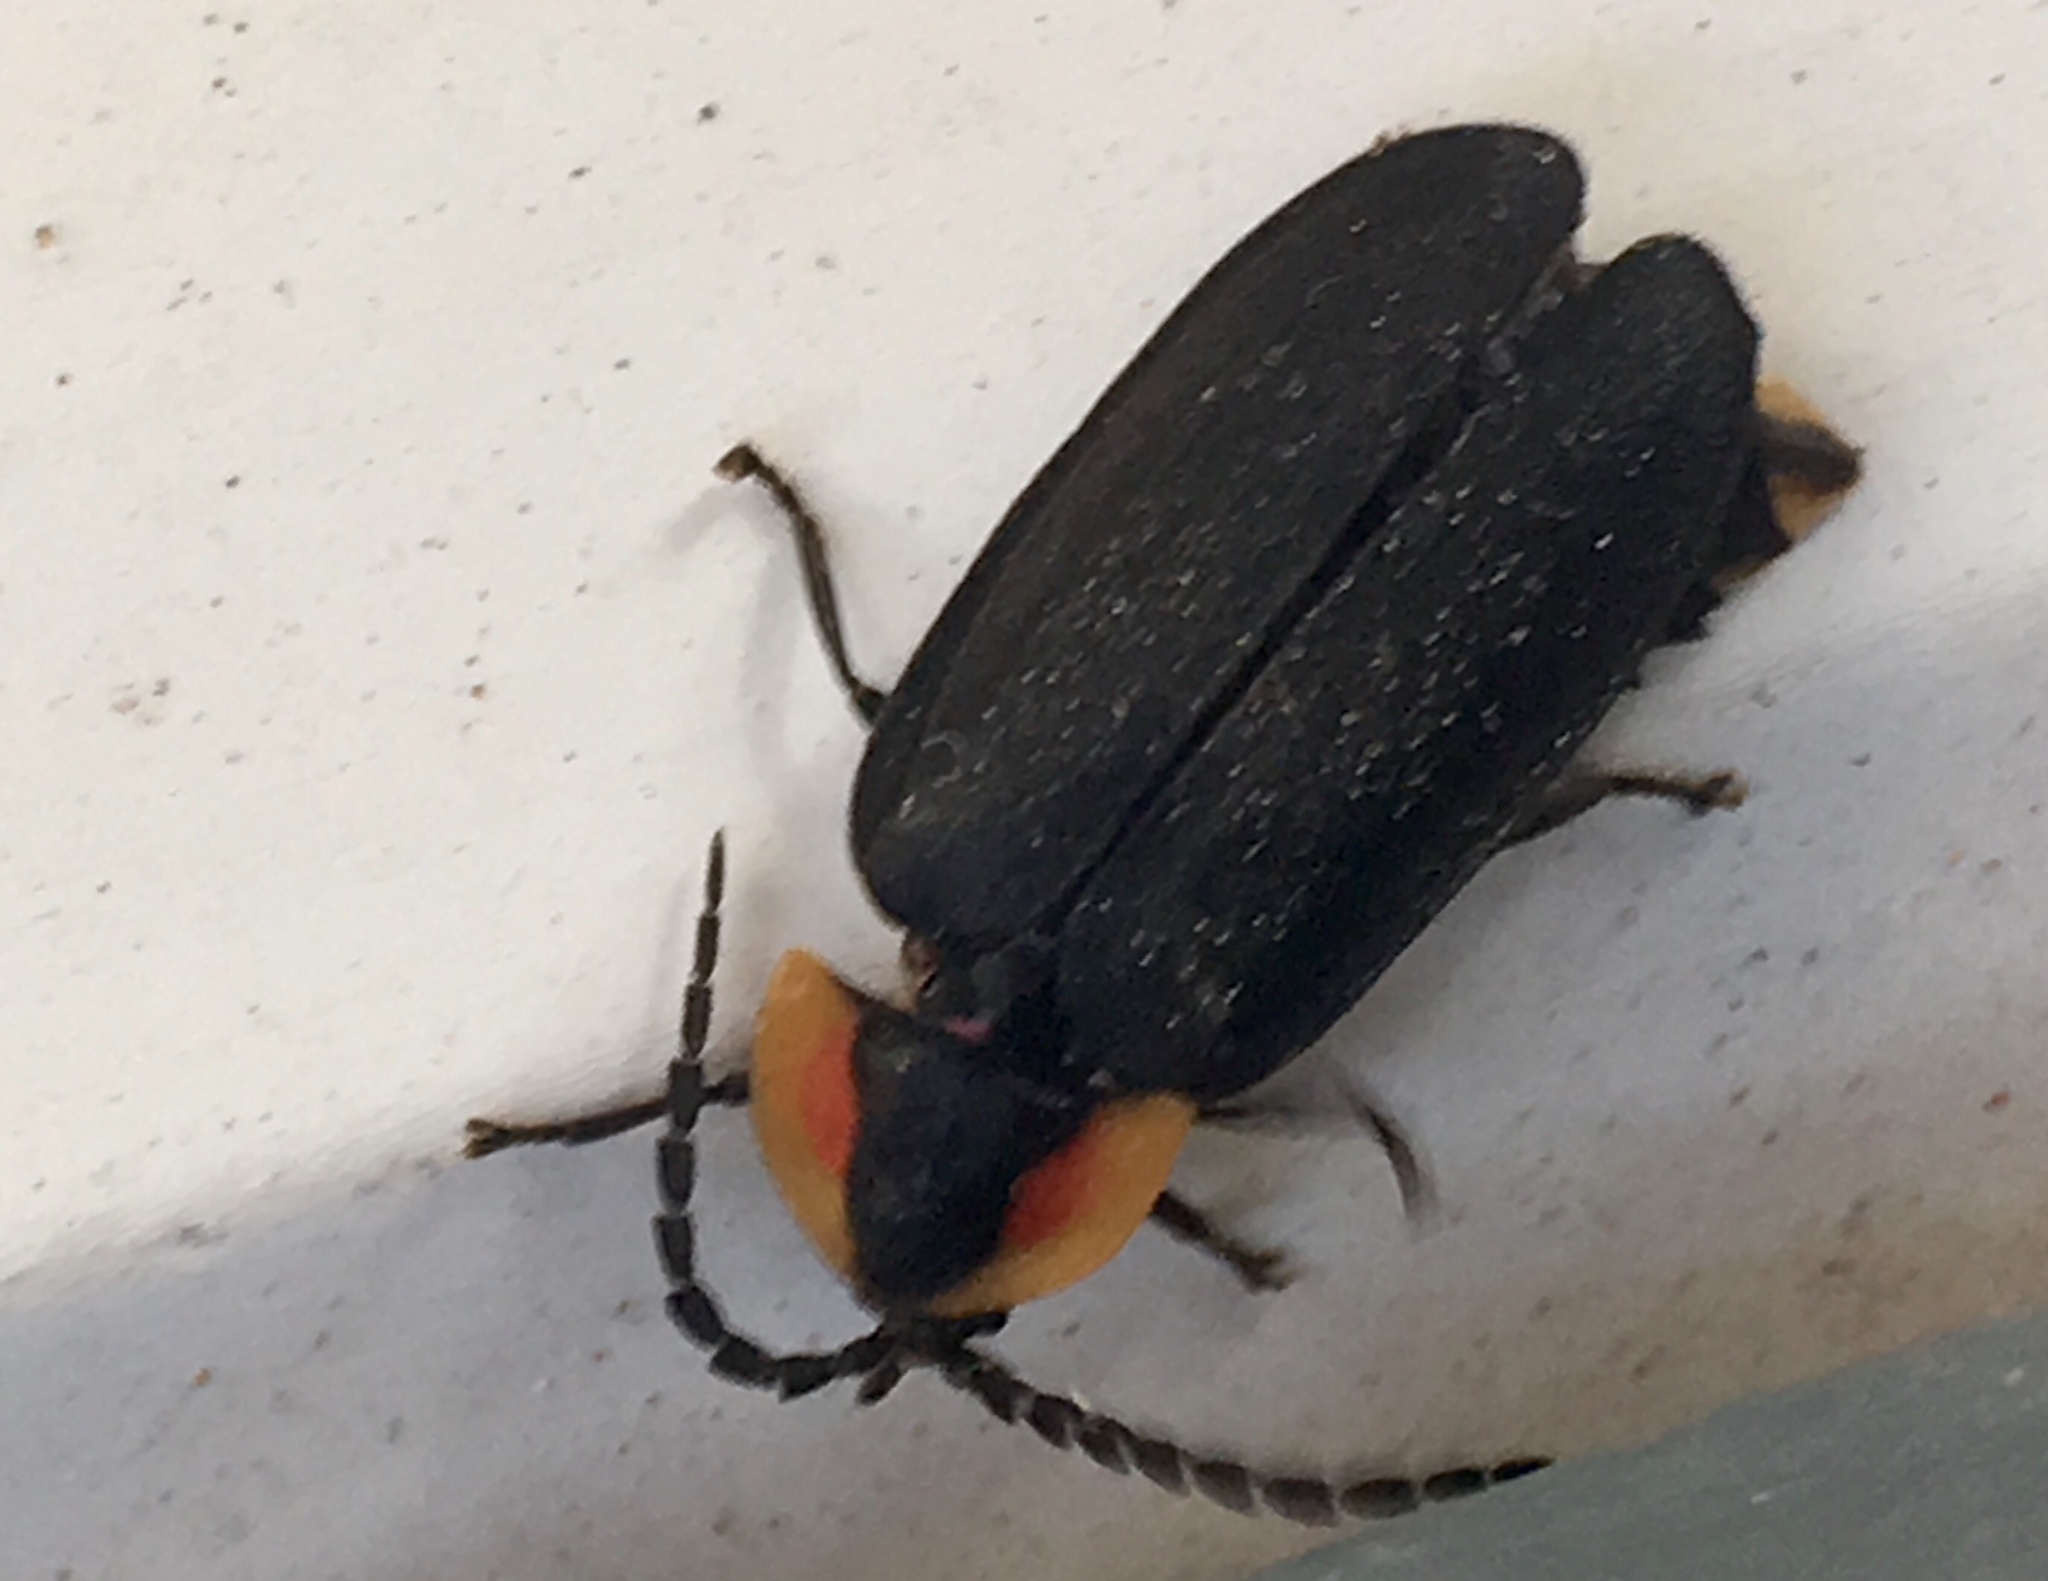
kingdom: Animalia
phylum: Arthropoda
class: Insecta
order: Coleoptera
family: Lampyridae
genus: Lucidota
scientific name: Lucidota atra
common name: Black firefly
